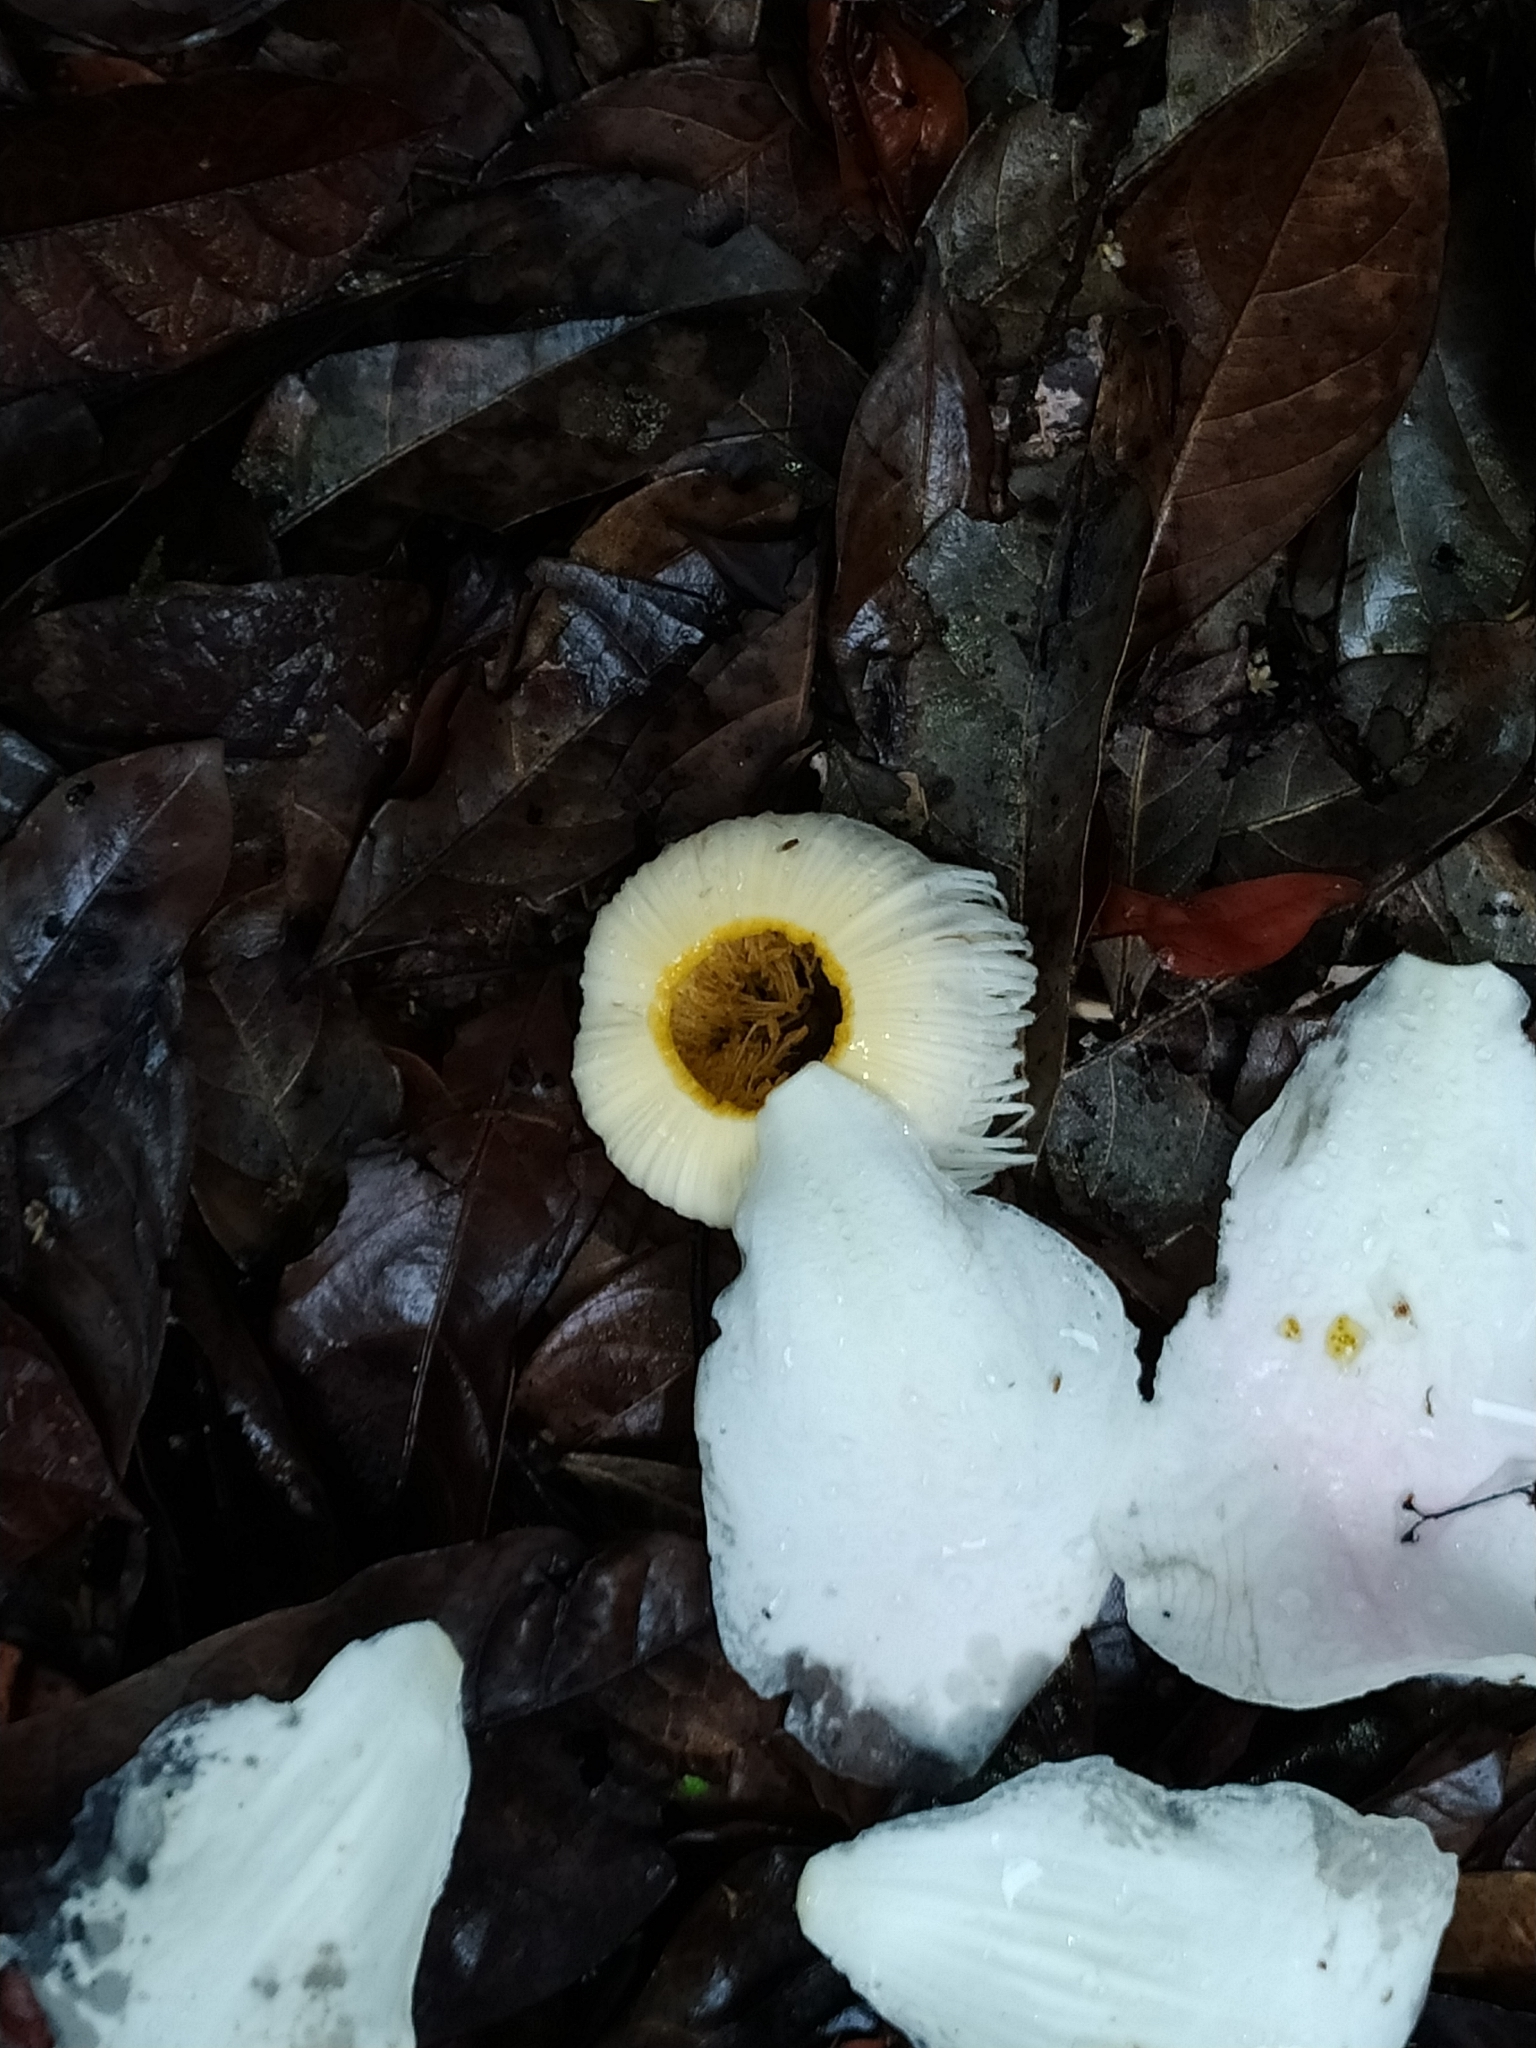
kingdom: Plantae
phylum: Tracheophyta
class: Magnoliopsida
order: Ericales
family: Lecythidaceae
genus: Gustavia
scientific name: Gustavia augusta
